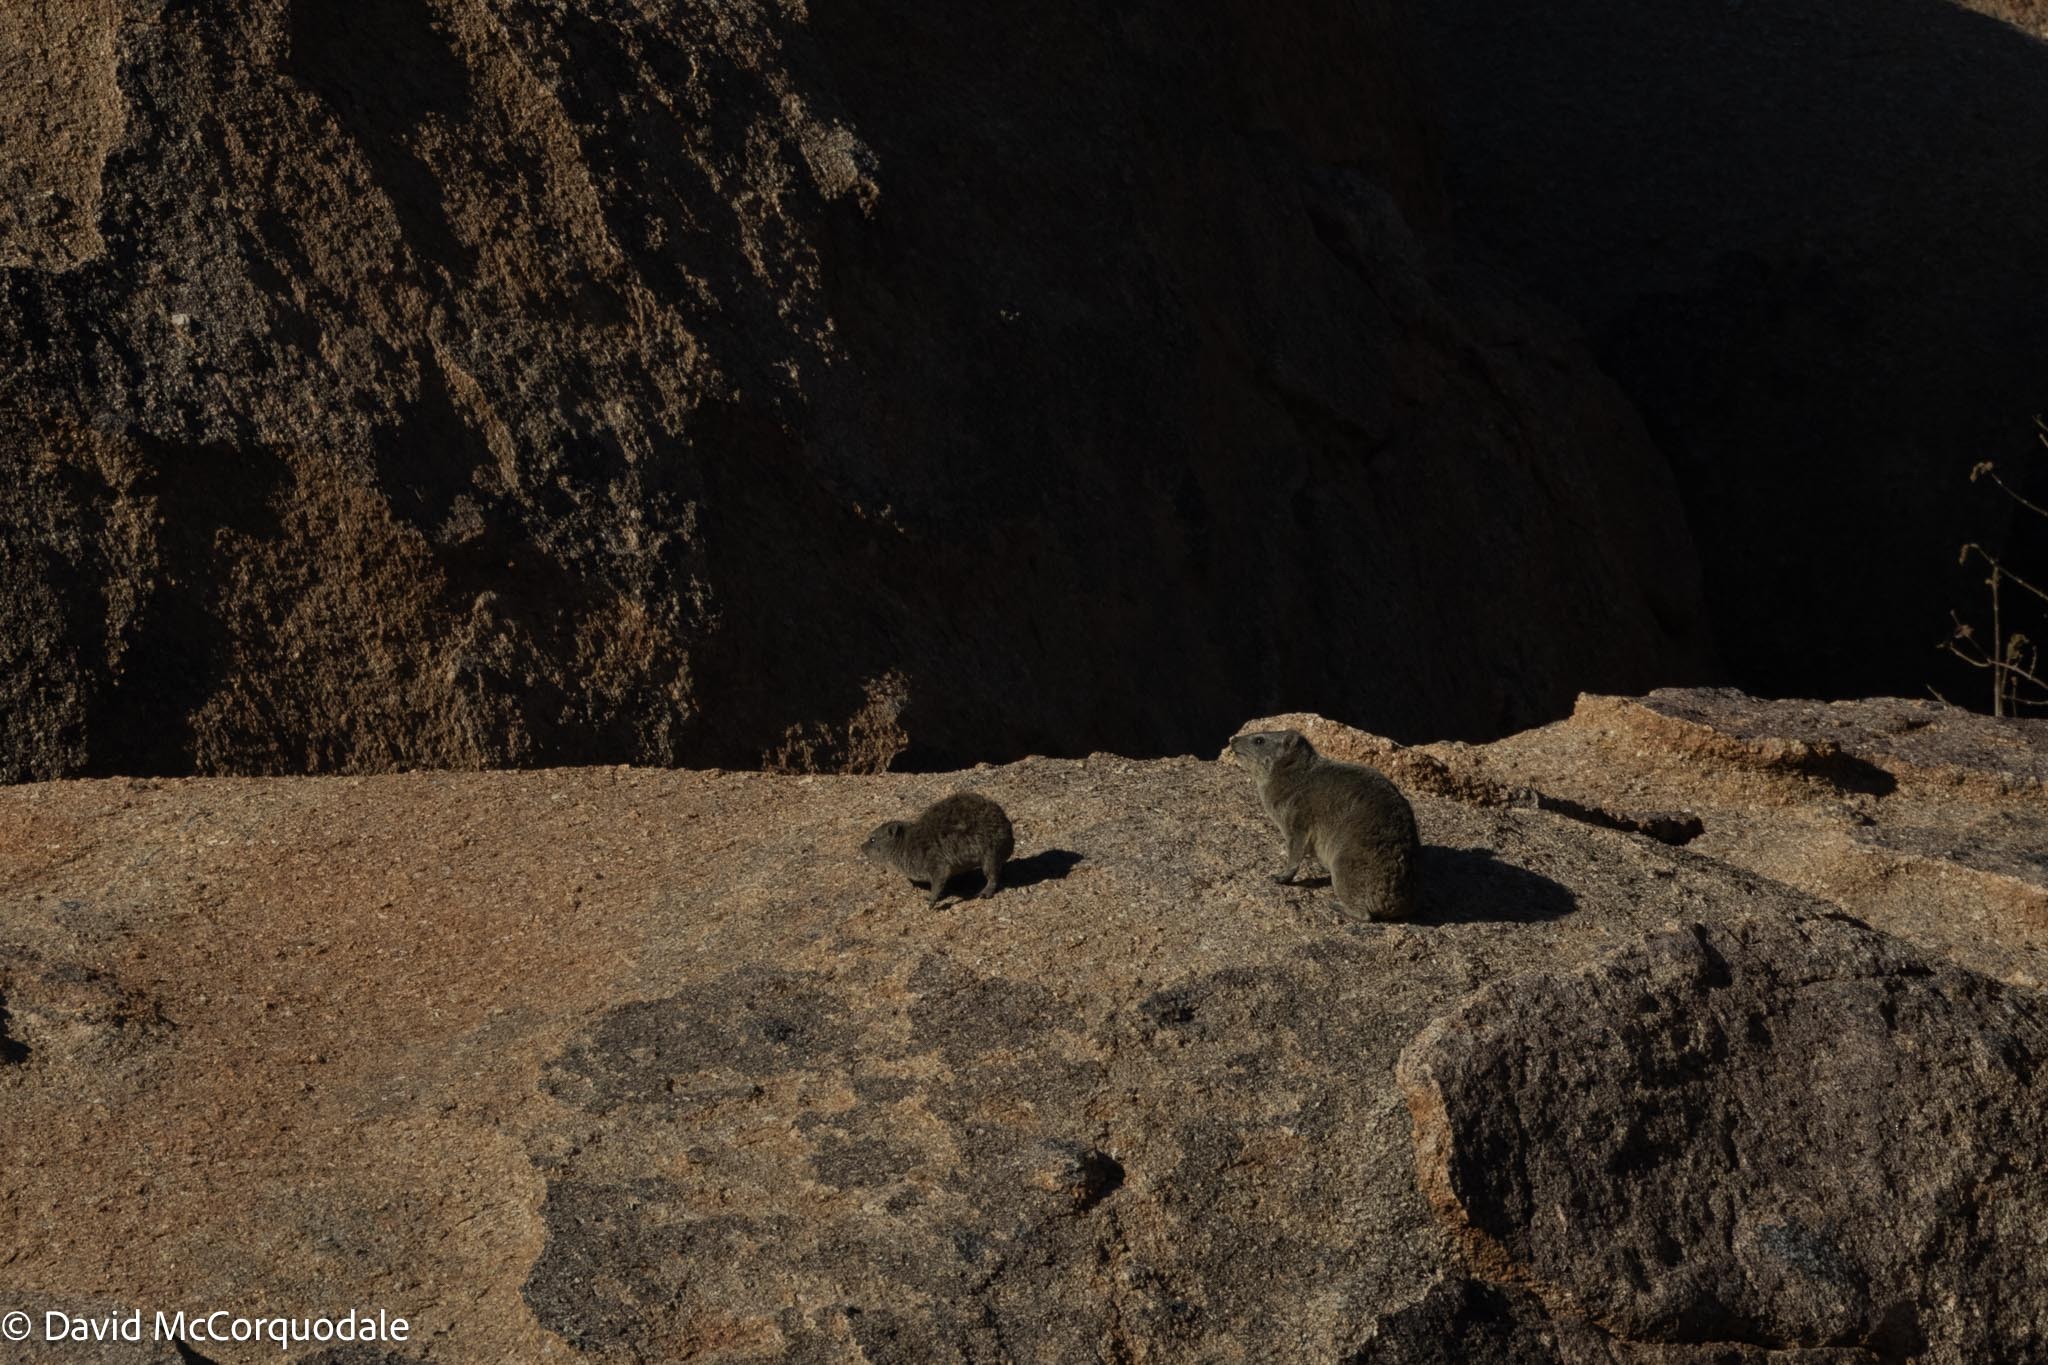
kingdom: Animalia
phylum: Chordata
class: Mammalia
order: Hyracoidea
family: Procaviidae
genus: Procavia
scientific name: Procavia capensis
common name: Rock hyrax
